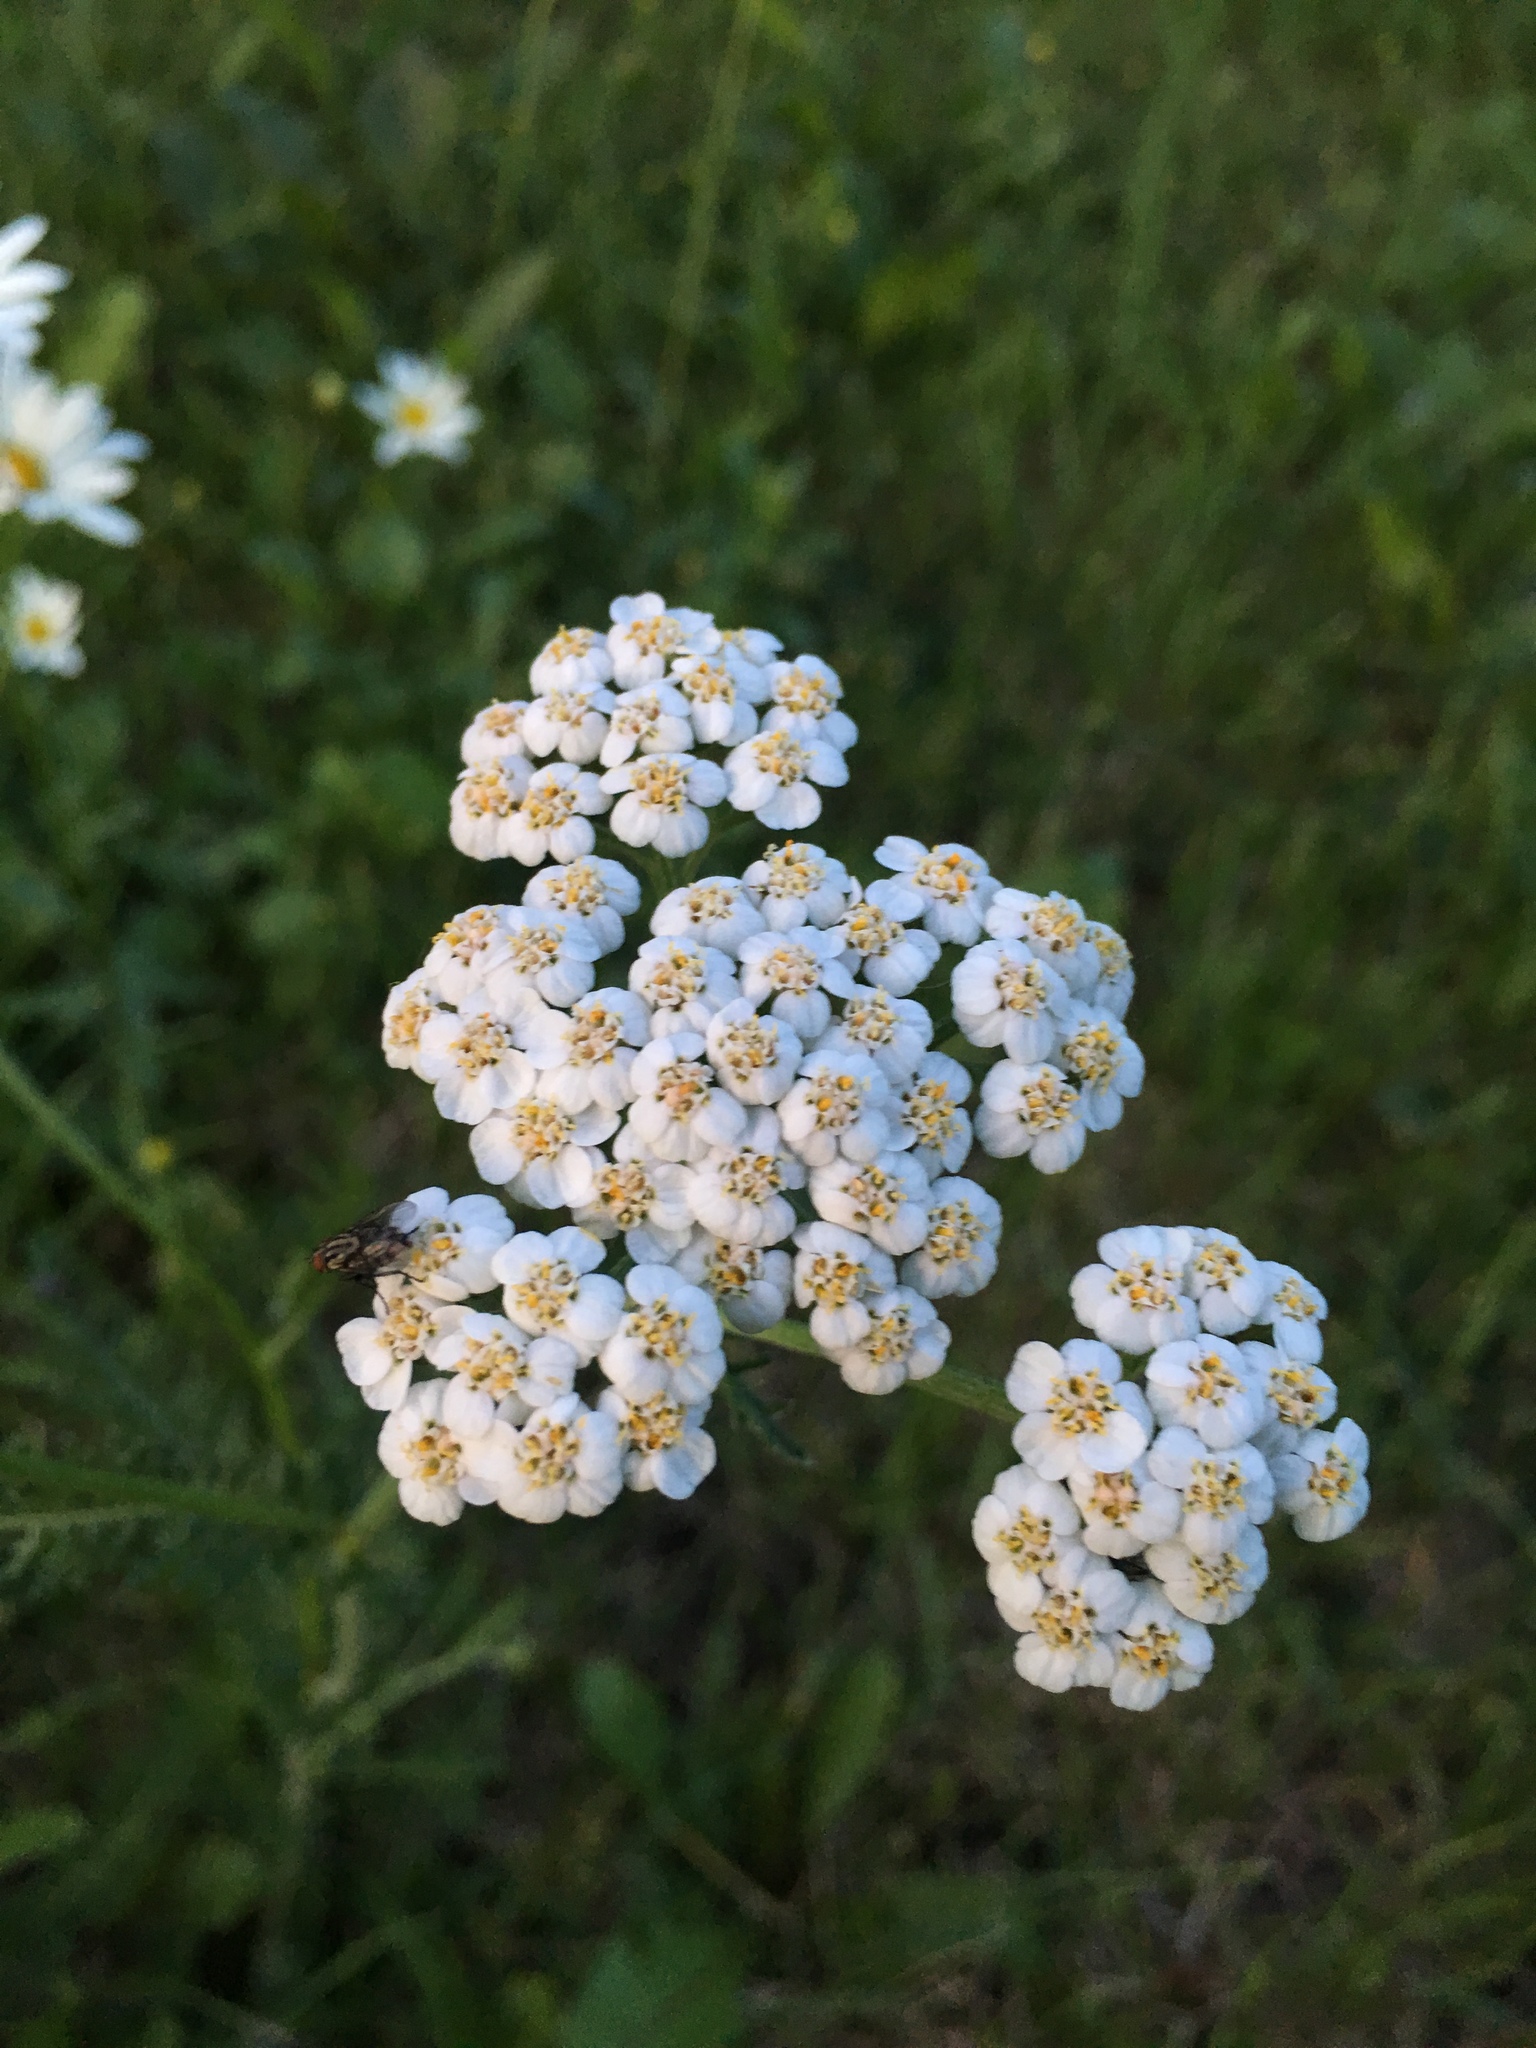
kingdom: Plantae
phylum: Tracheophyta
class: Magnoliopsida
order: Asterales
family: Asteraceae
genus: Achillea
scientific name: Achillea millefolium
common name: Yarrow
